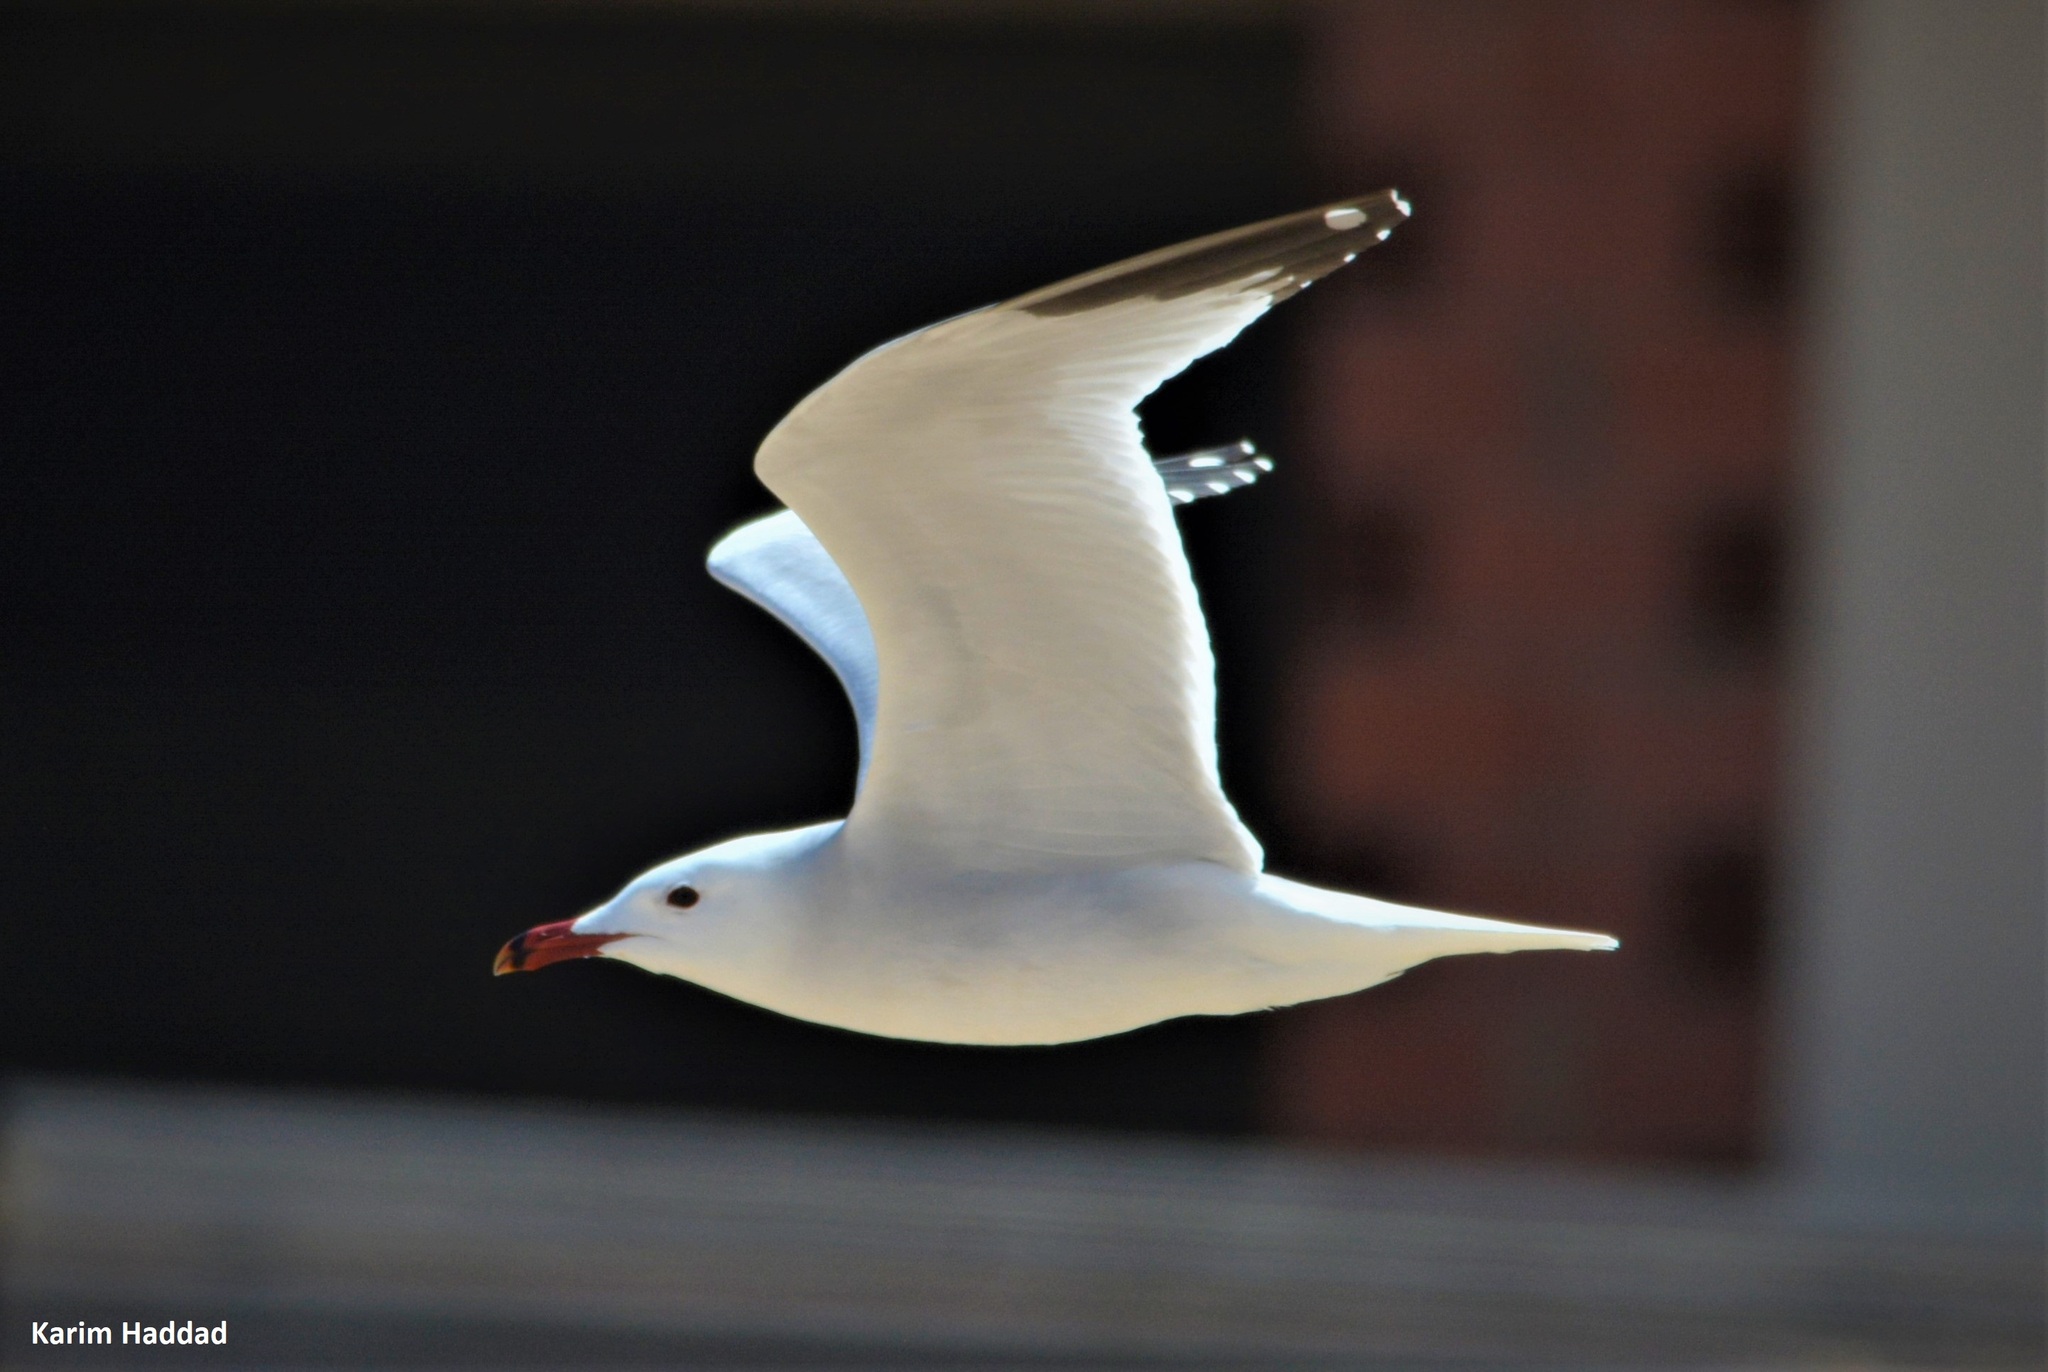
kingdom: Animalia
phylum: Chordata
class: Aves
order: Charadriiformes
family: Laridae
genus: Ichthyaetus
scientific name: Ichthyaetus audouinii
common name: Audouin's gull
